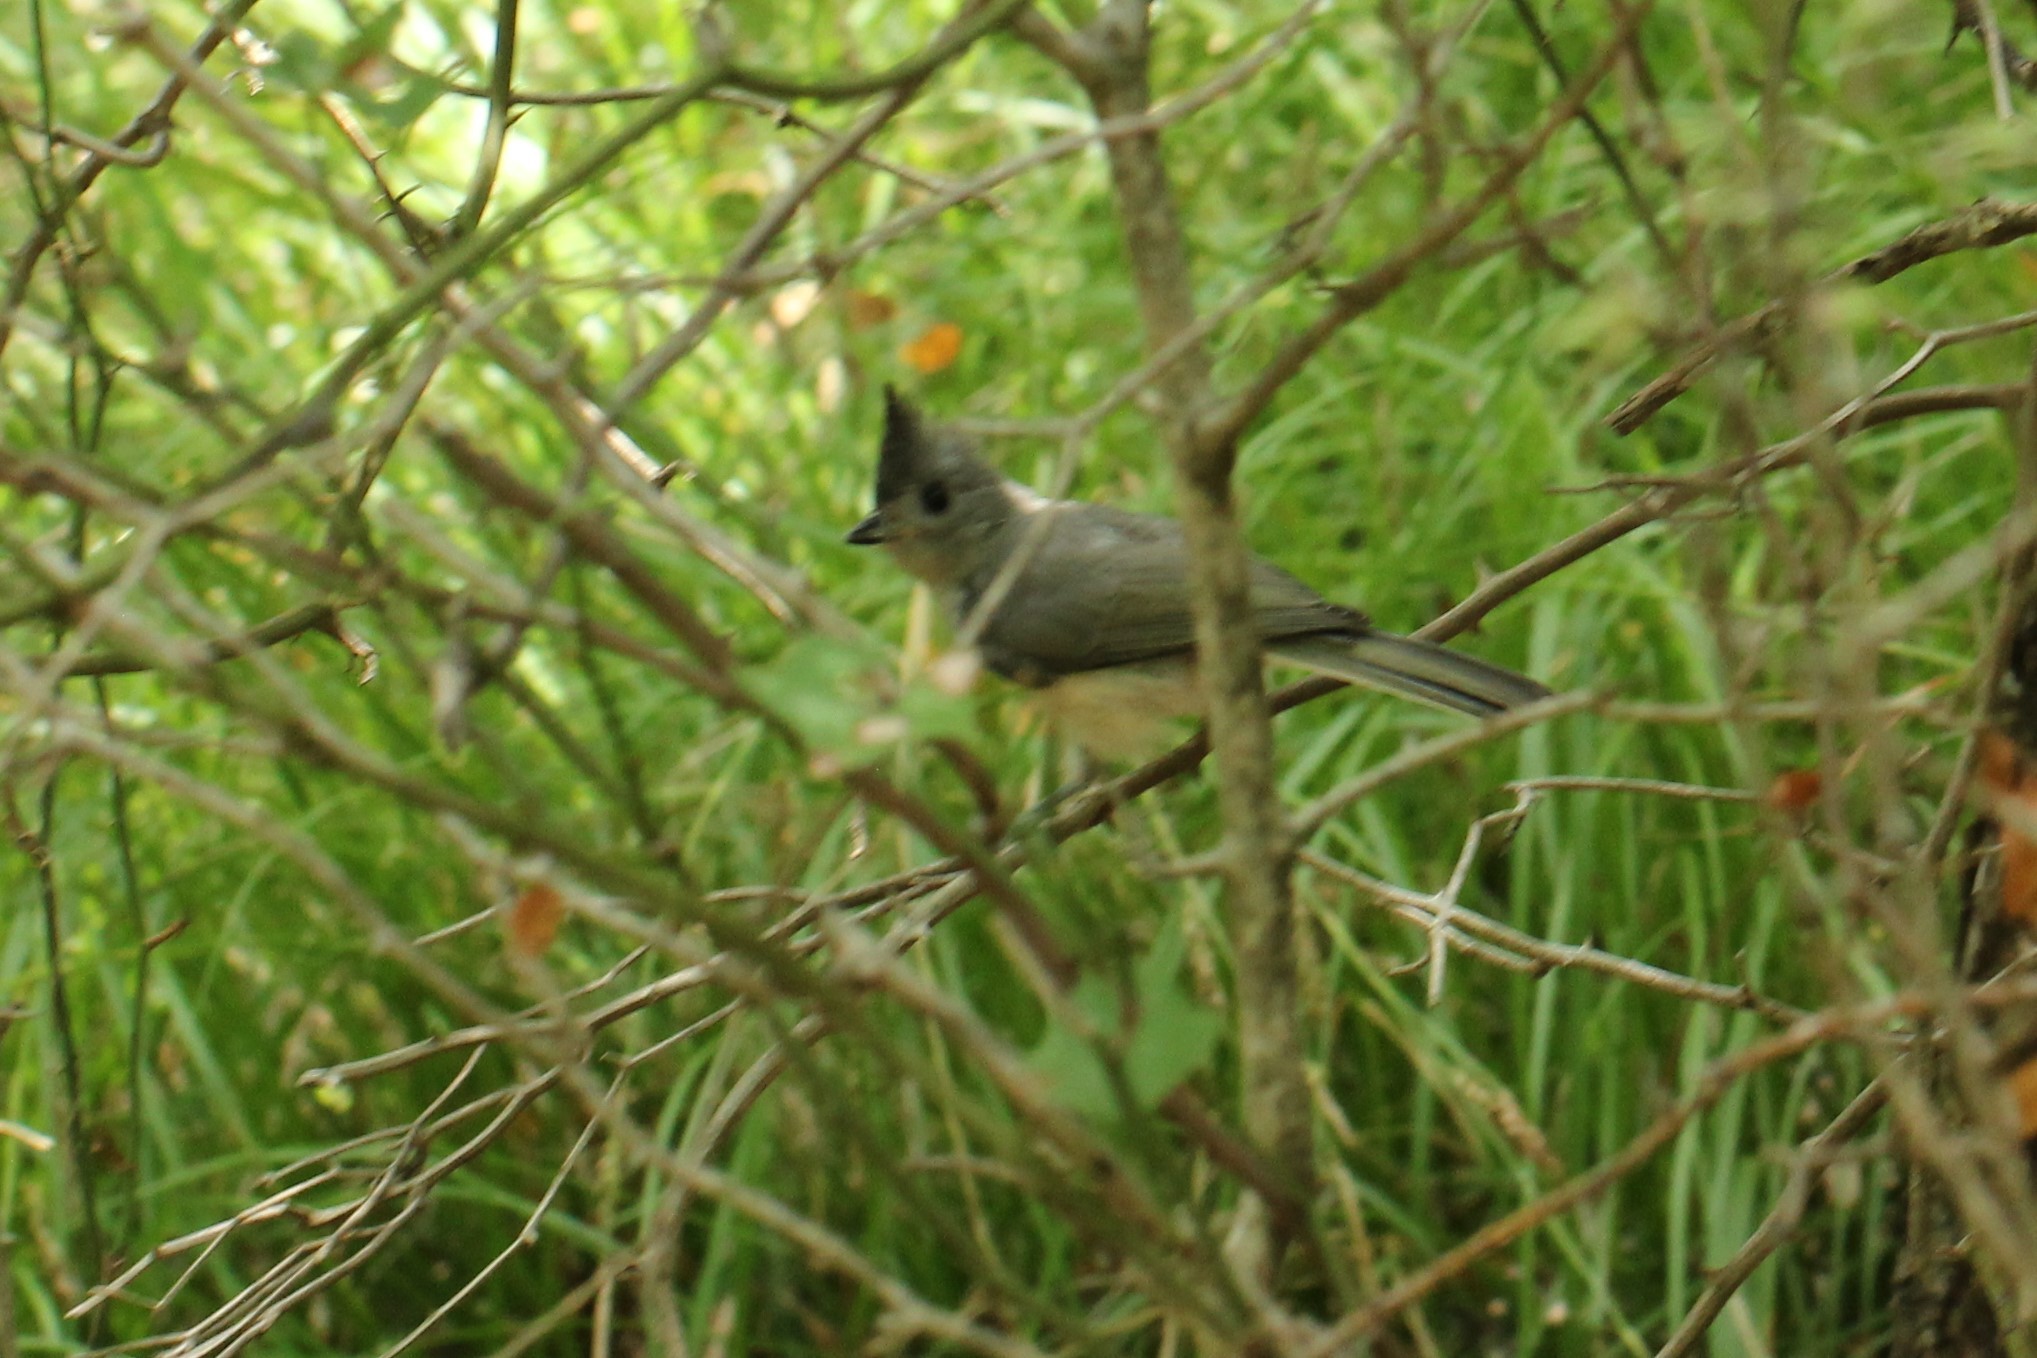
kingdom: Animalia
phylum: Chordata
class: Aves
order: Passeriformes
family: Paridae
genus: Baeolophus
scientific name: Baeolophus
